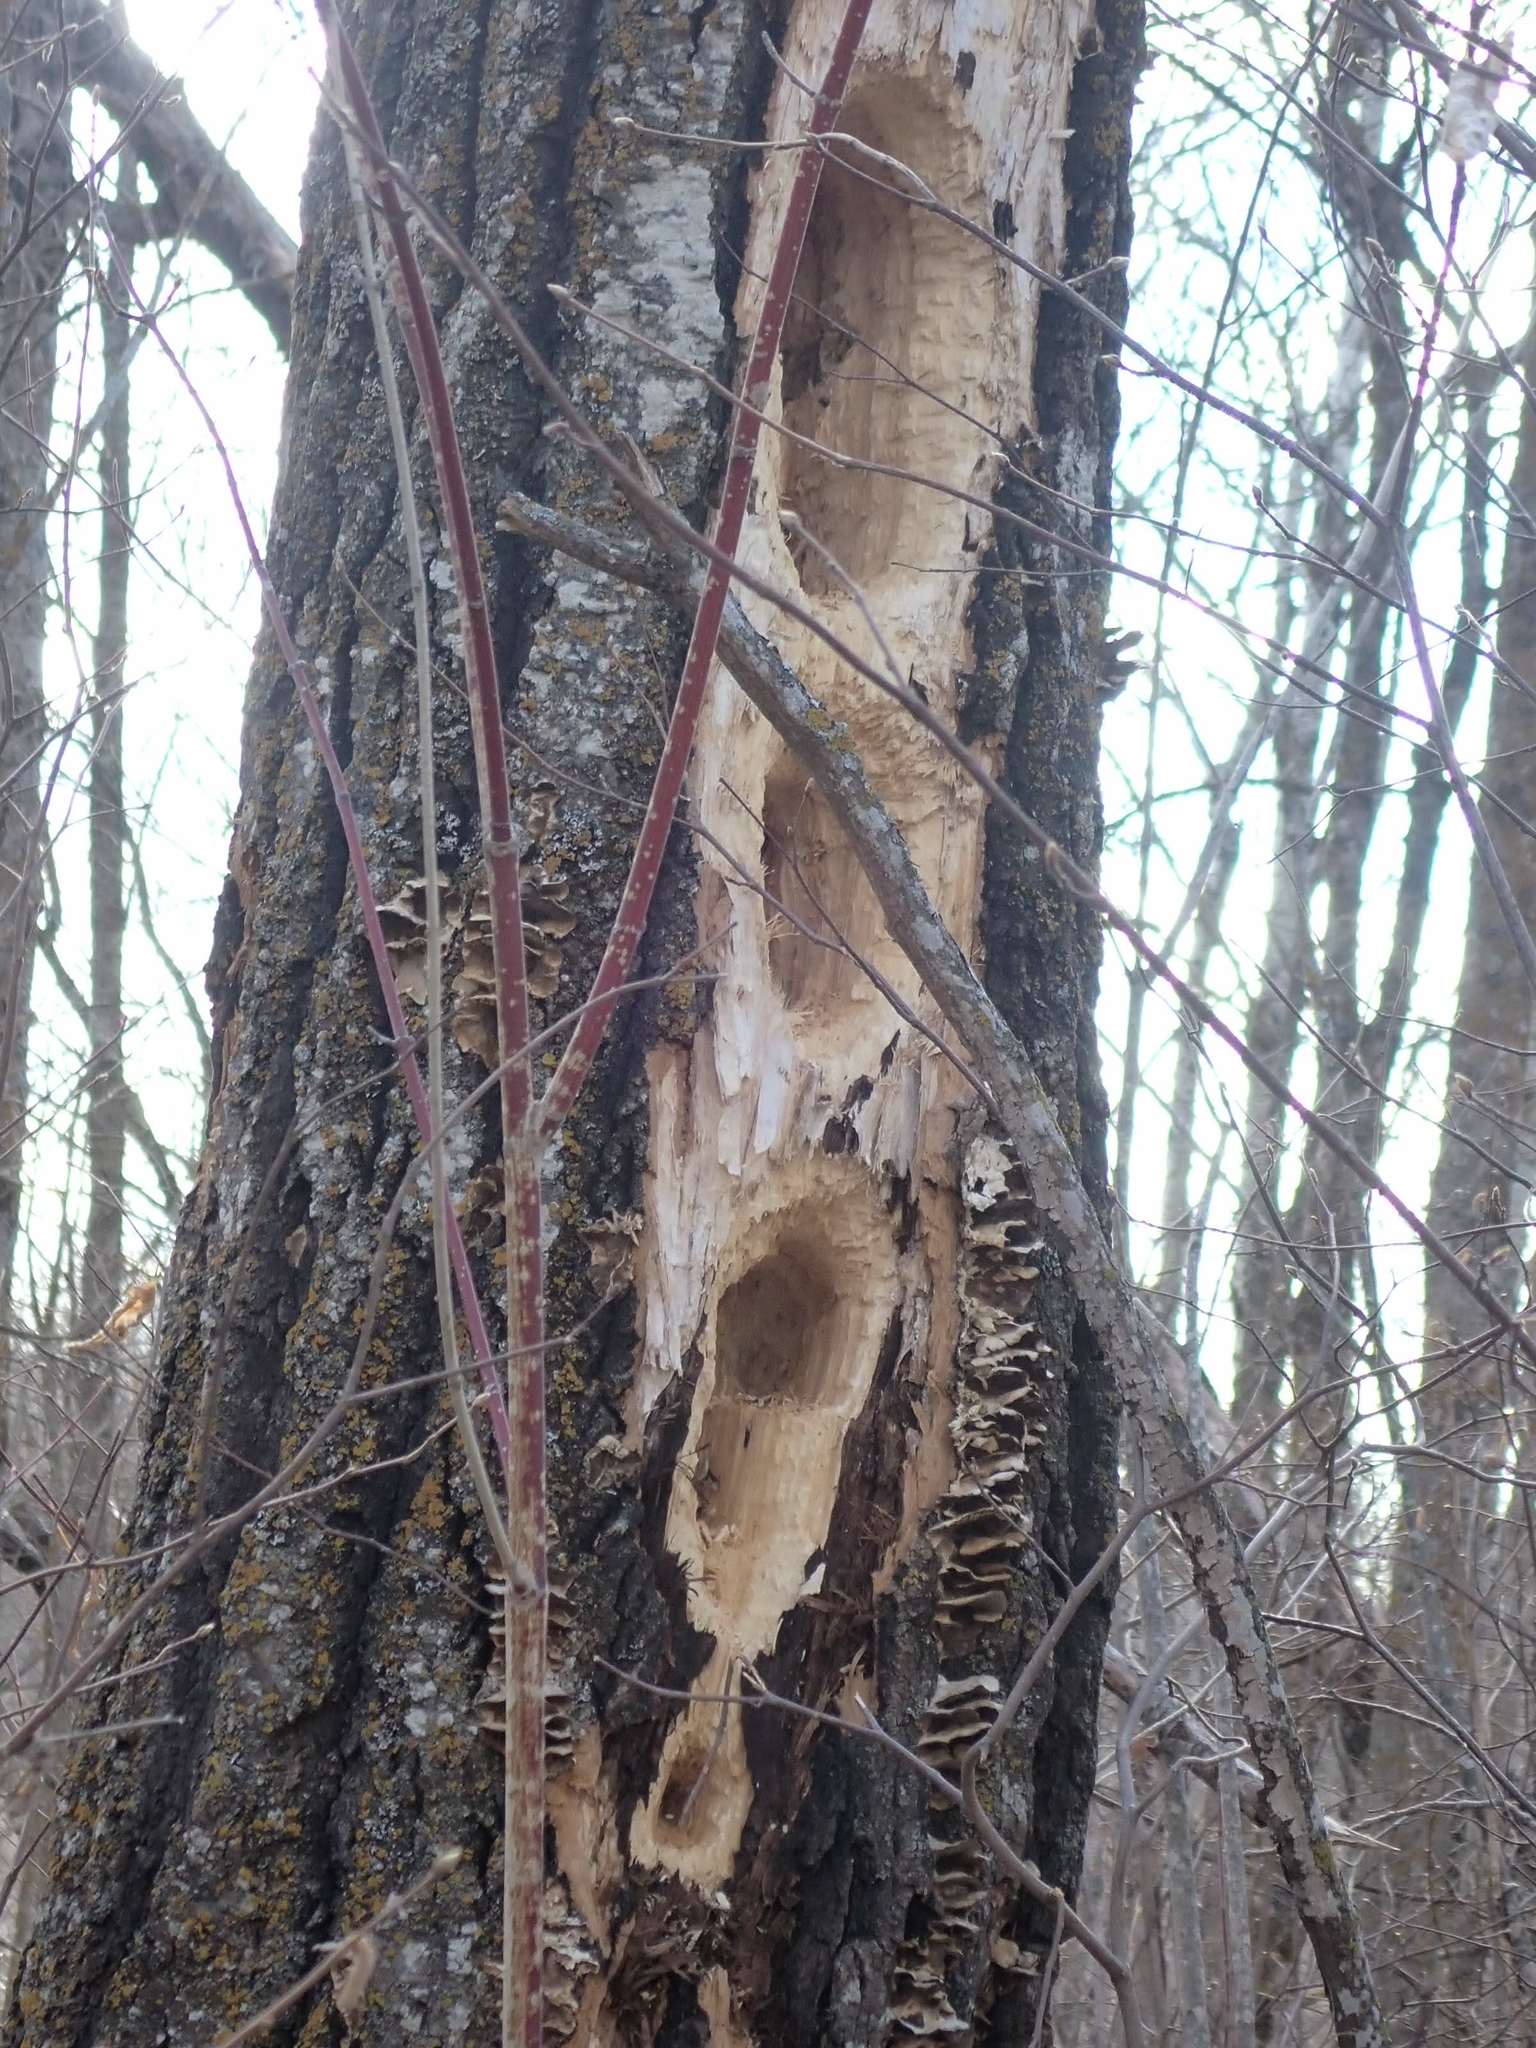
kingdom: Animalia
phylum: Chordata
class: Aves
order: Piciformes
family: Picidae
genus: Dryocopus
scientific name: Dryocopus pileatus
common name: Pileated woodpecker
